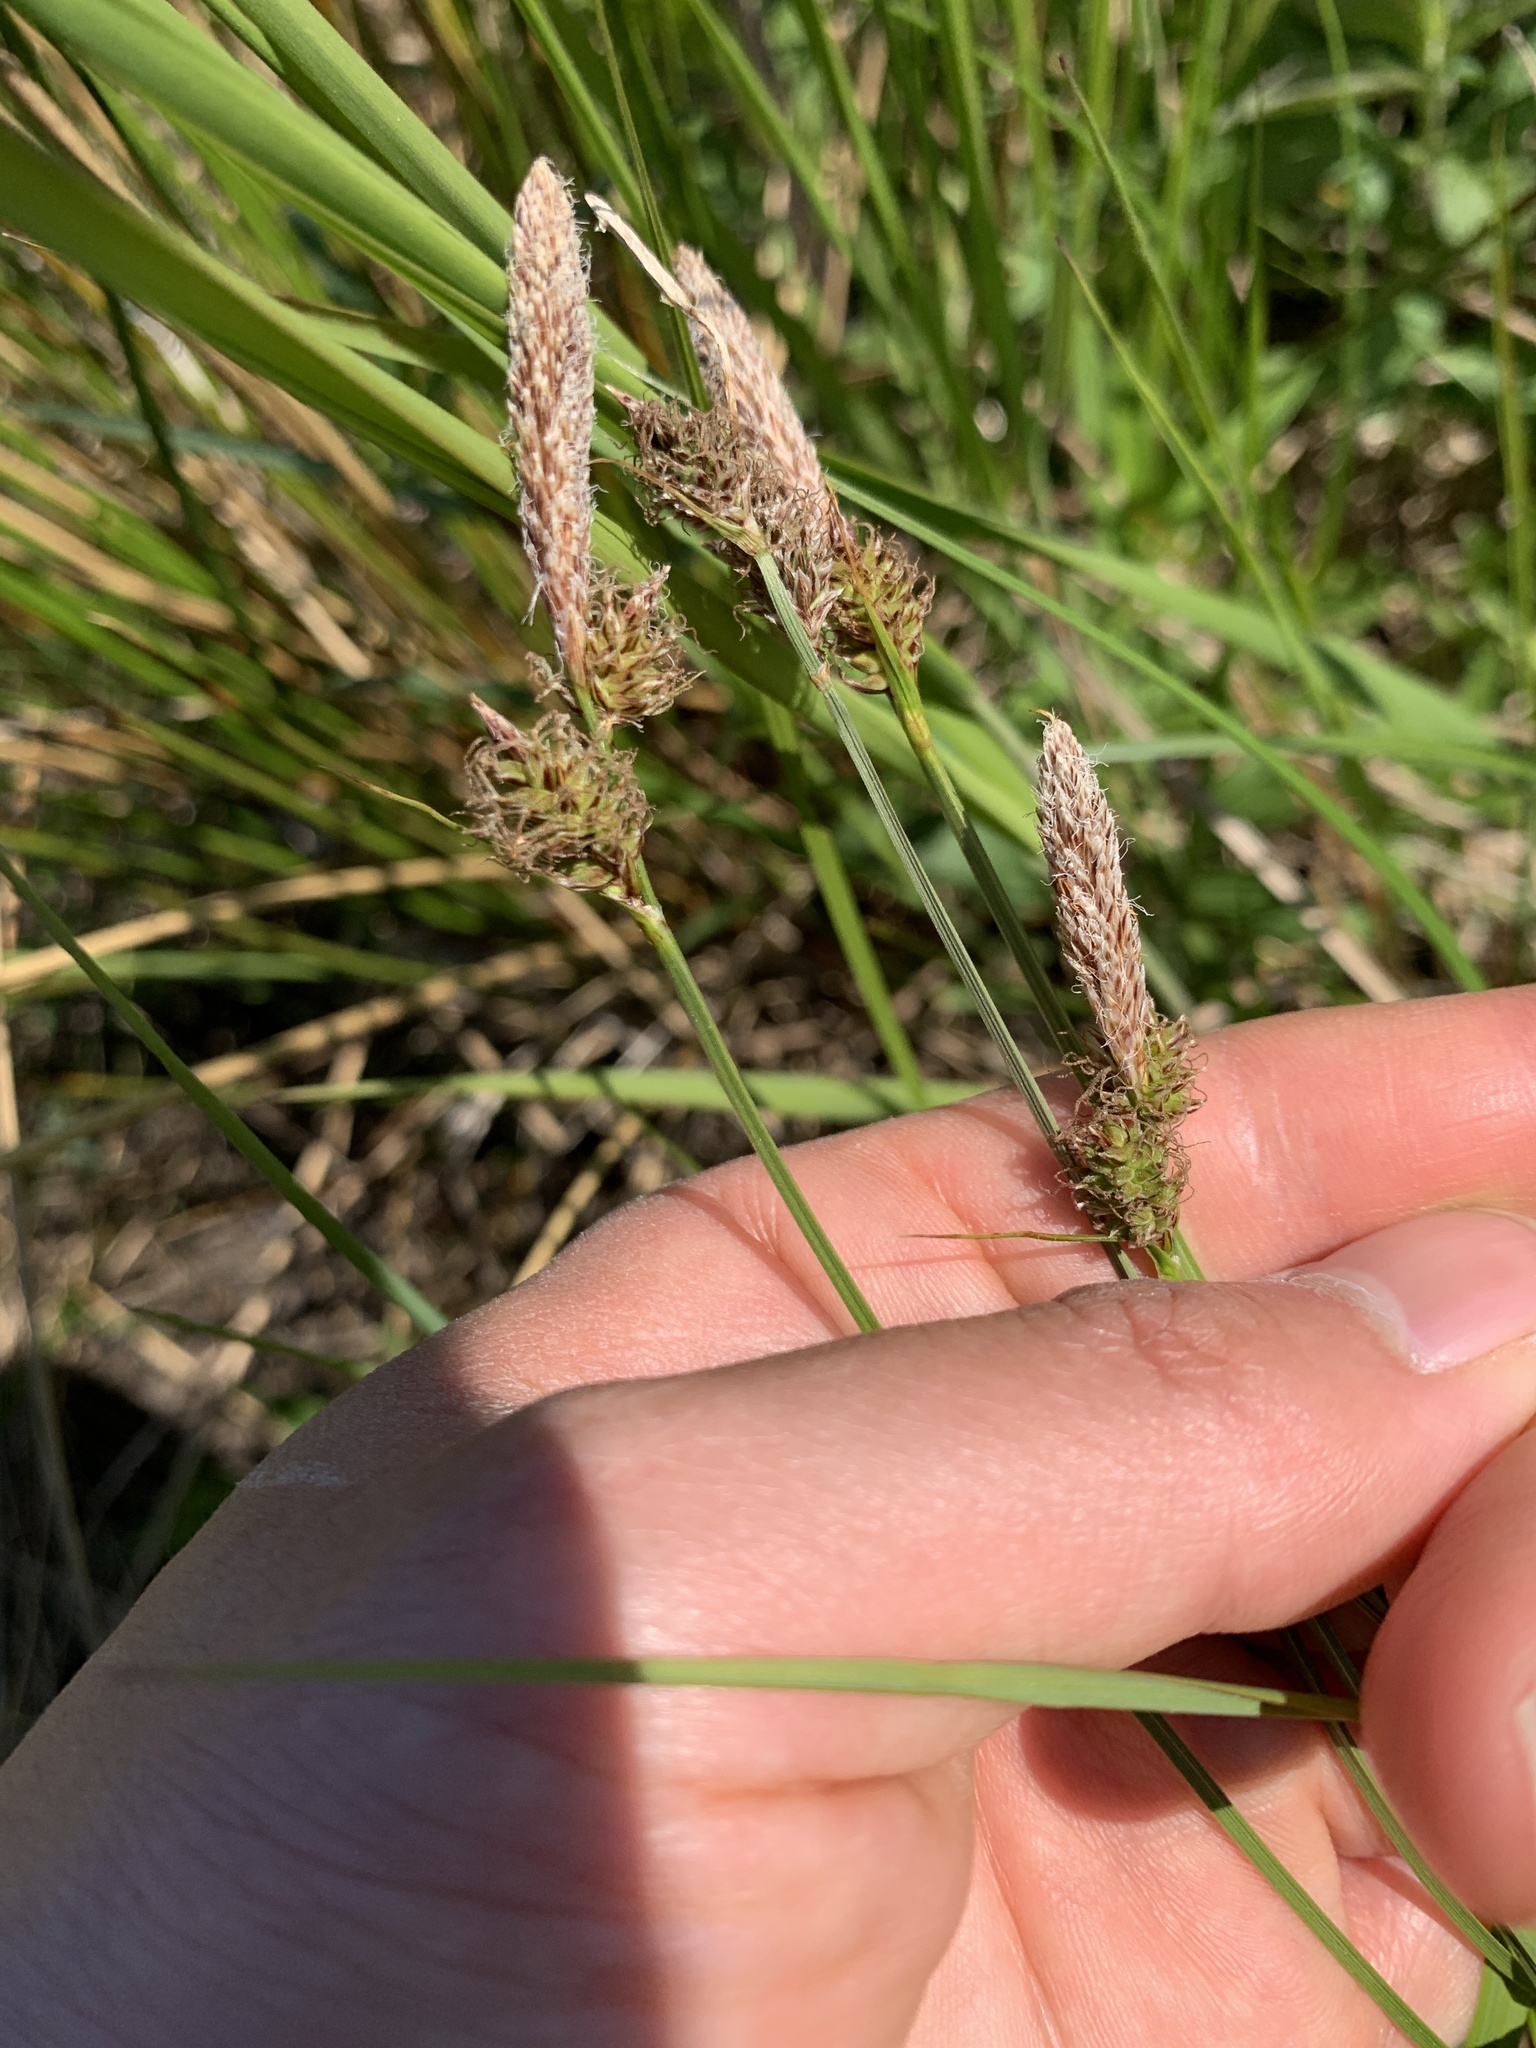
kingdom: Plantae
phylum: Tracheophyta
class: Liliopsida
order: Poales
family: Cyperaceae
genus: Carex
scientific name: Carex vestita
